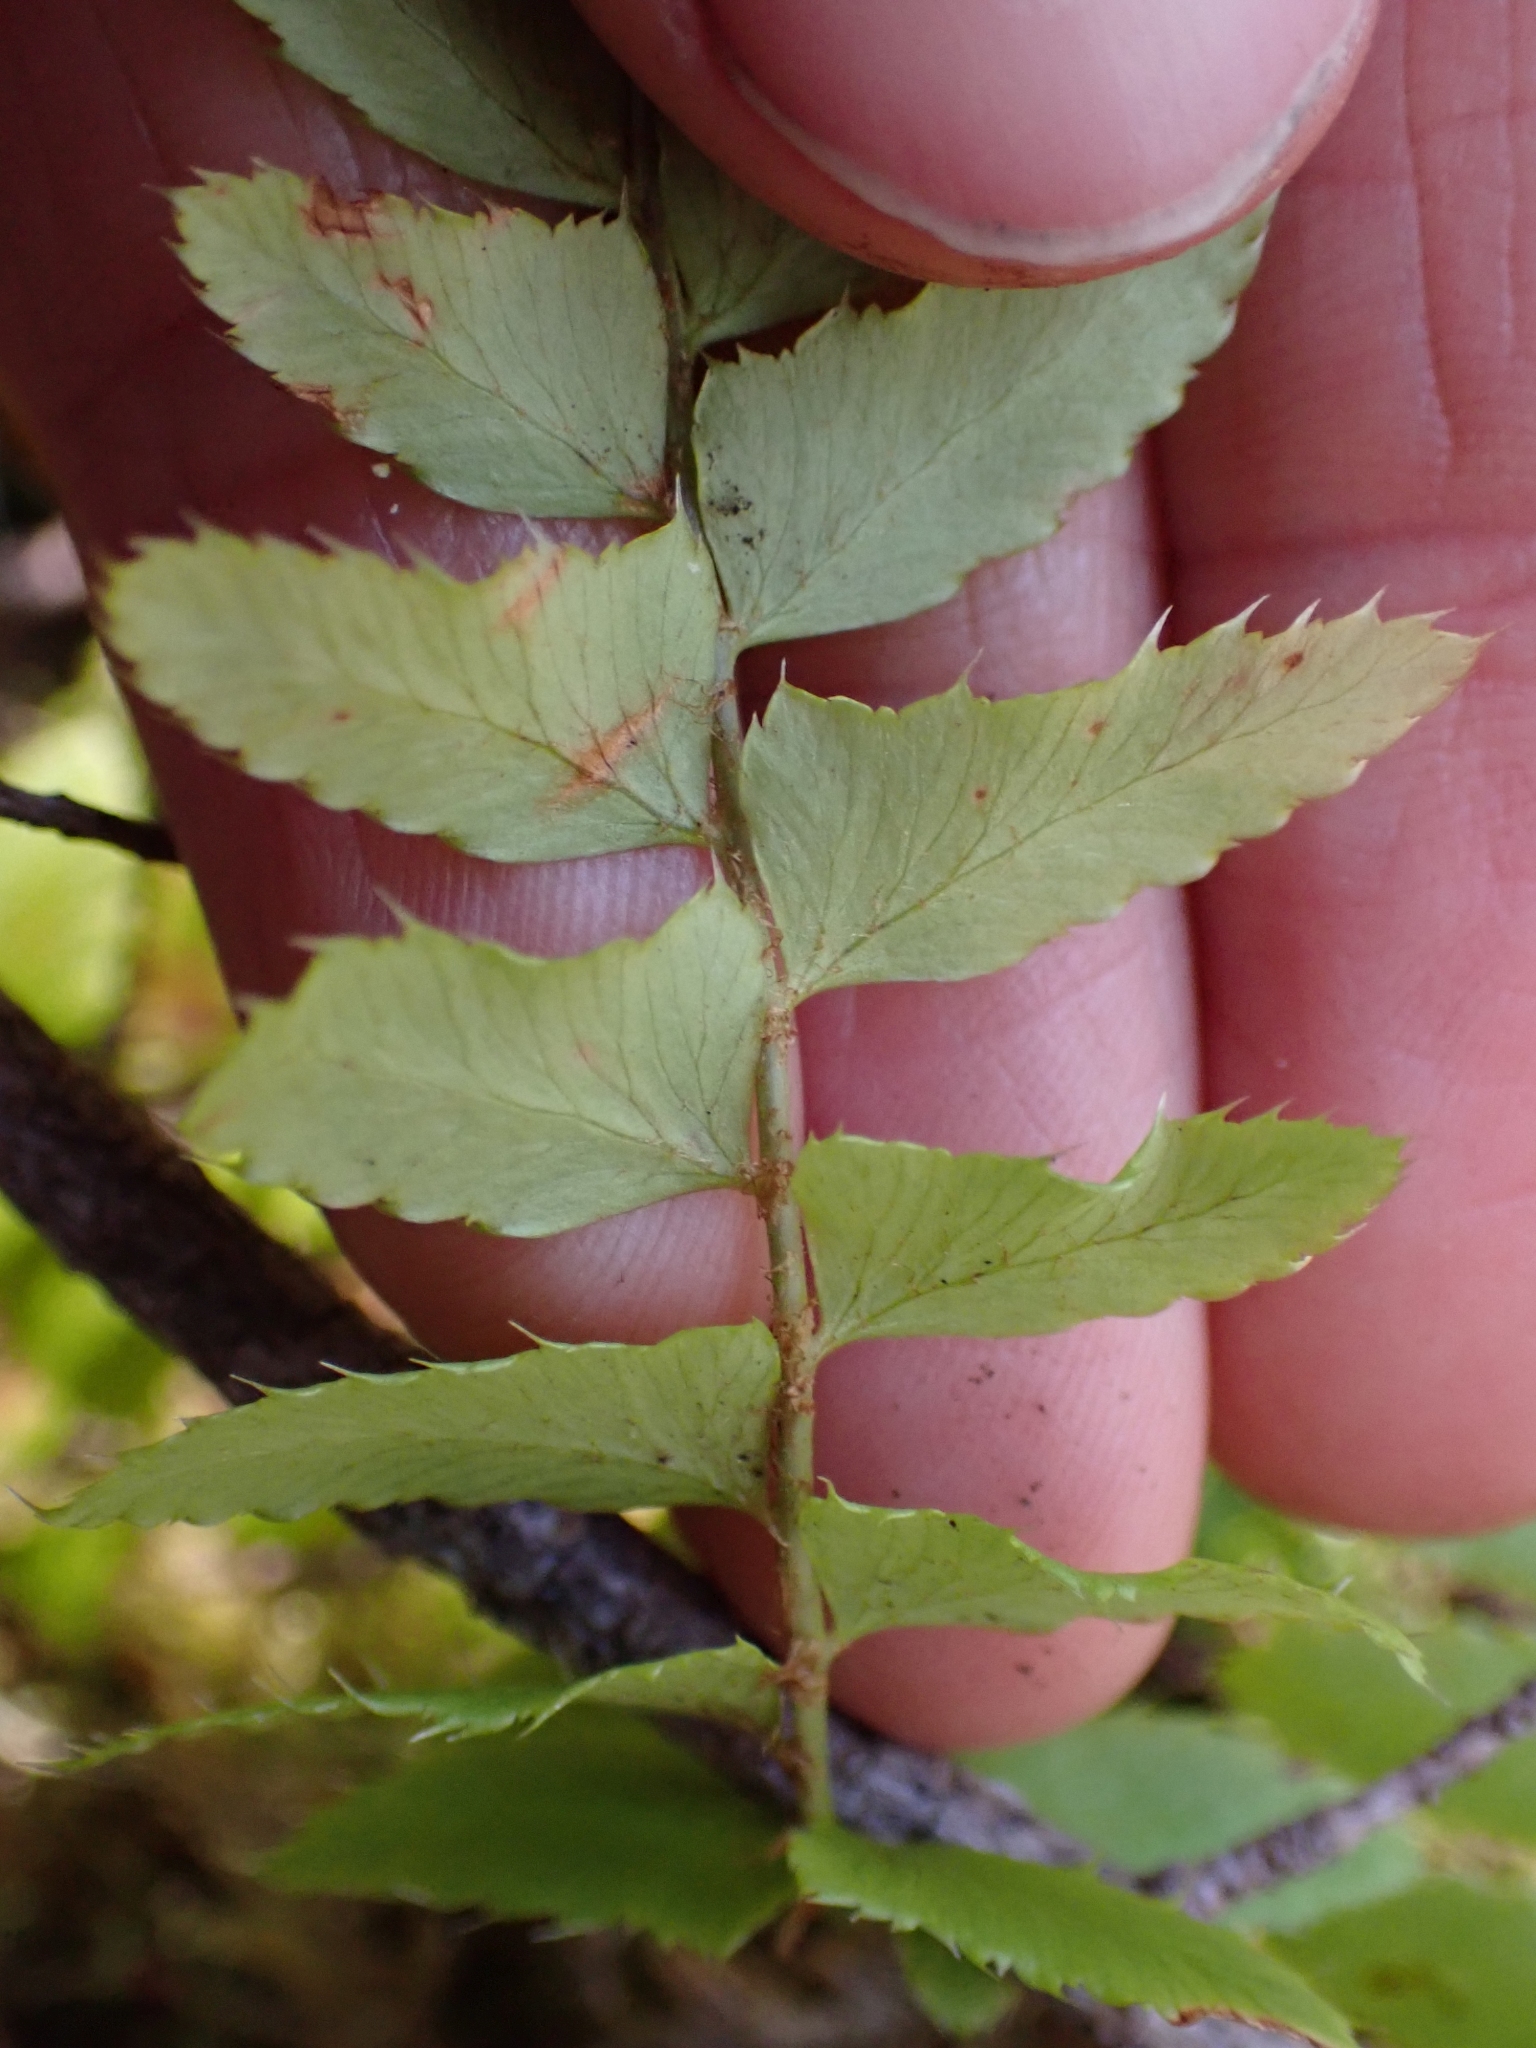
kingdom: Plantae
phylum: Tracheophyta
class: Polypodiopsida
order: Polypodiales
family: Dryopteridaceae
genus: Polystichum
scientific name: Polystichum munitum
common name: Western sword-fern
